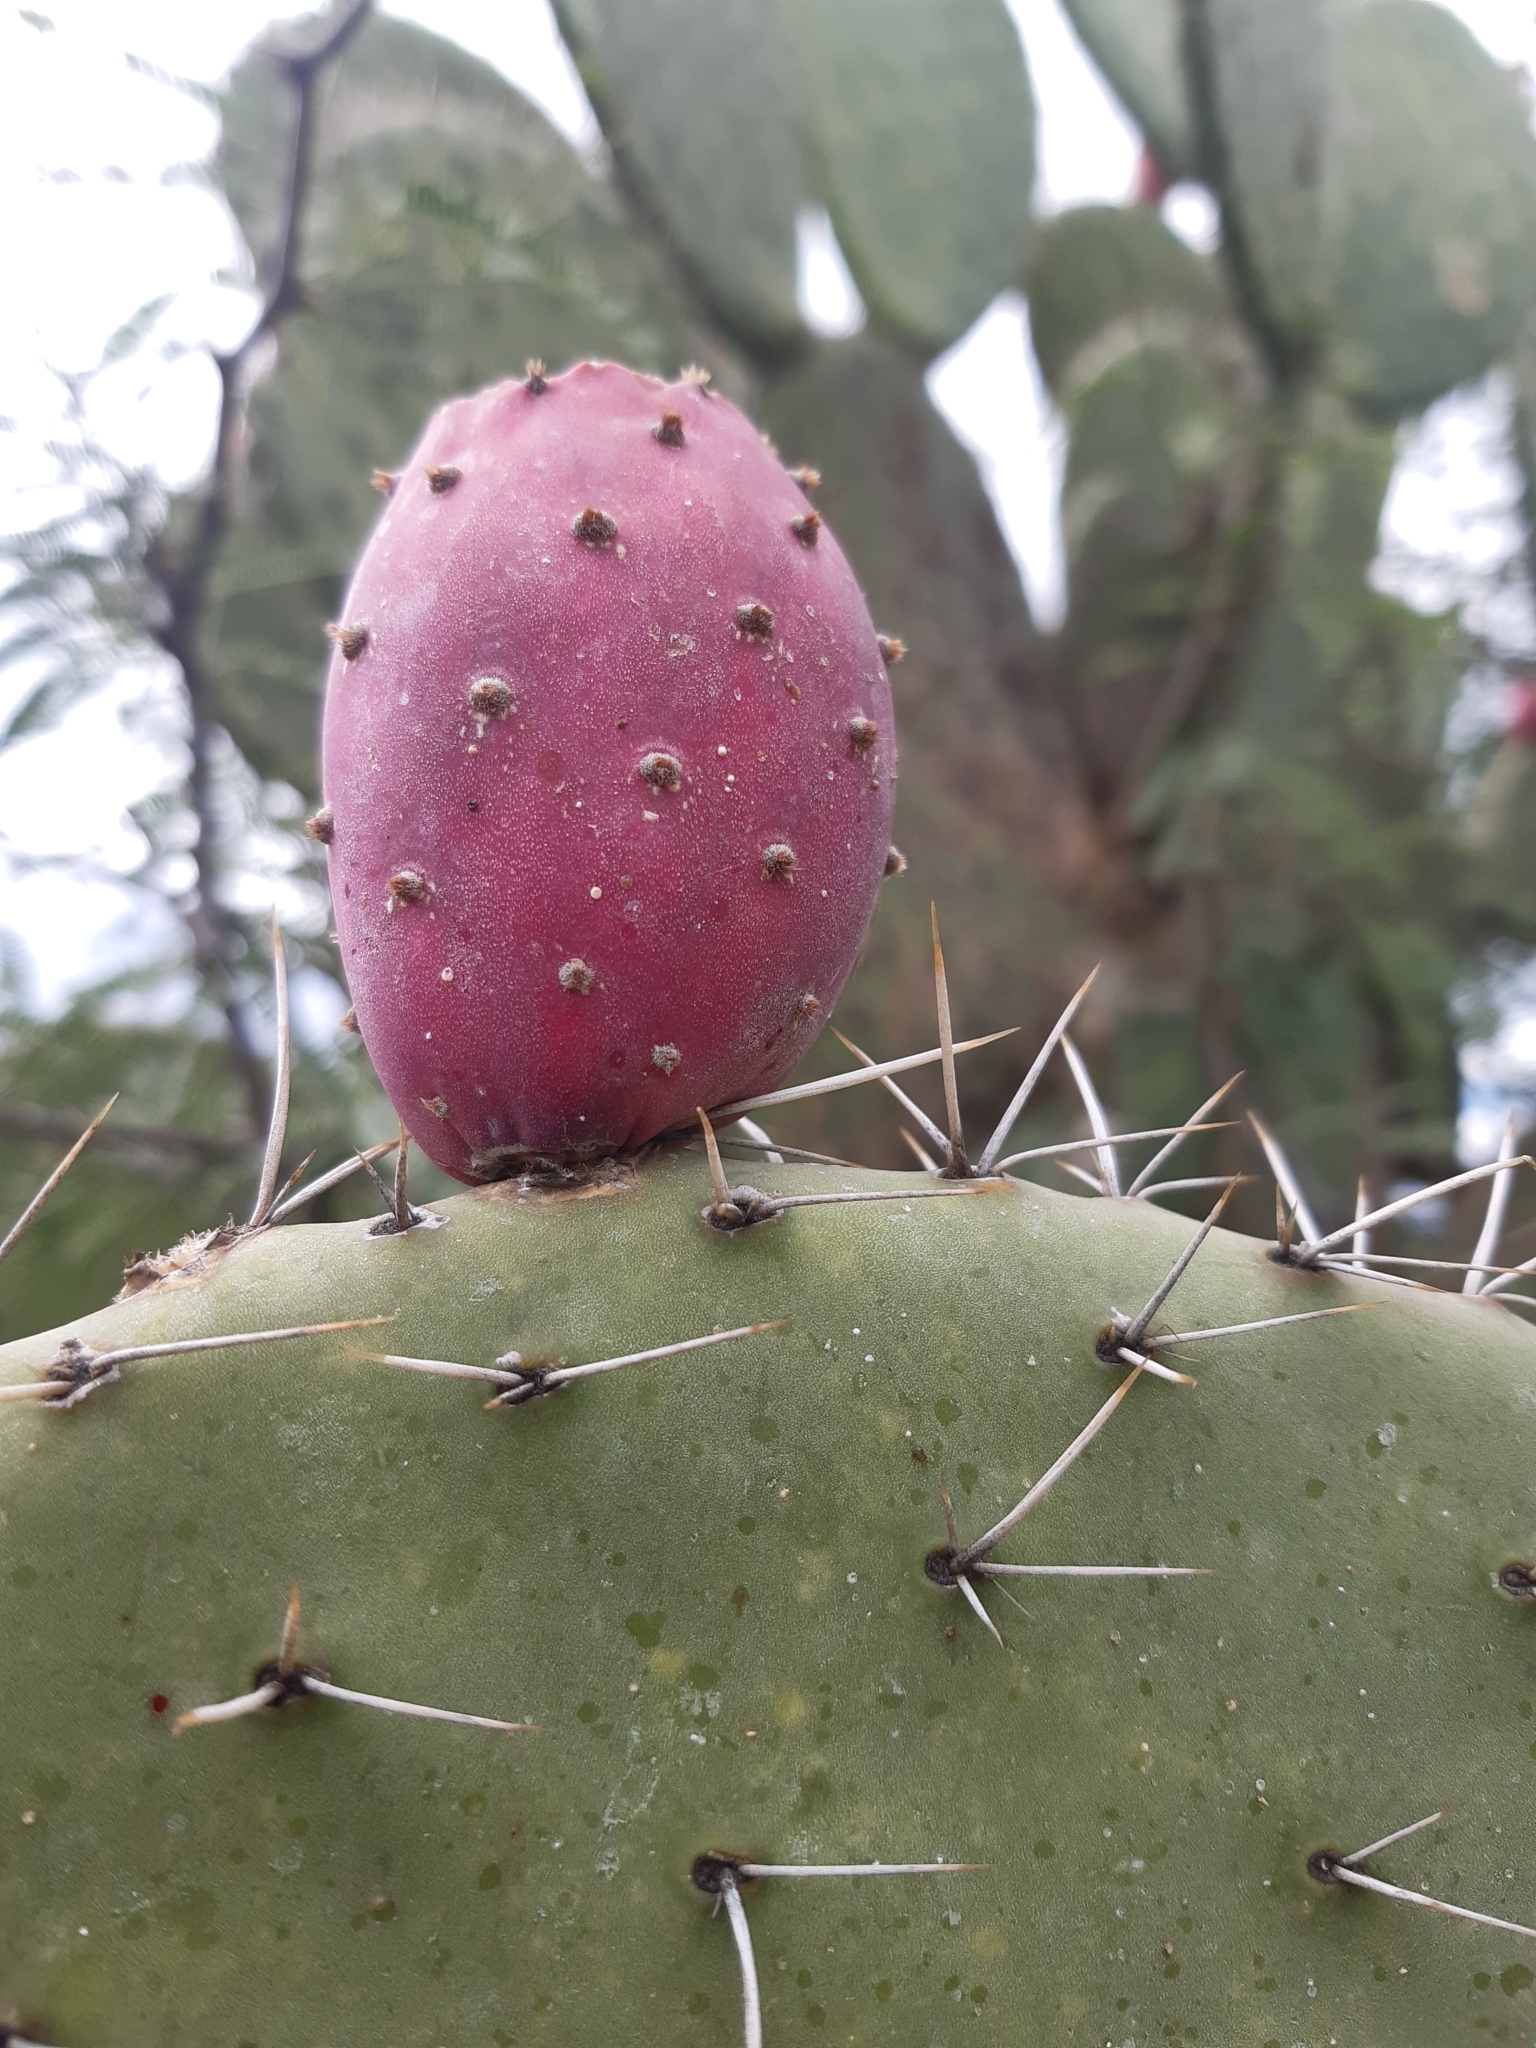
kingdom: Plantae
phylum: Tracheophyta
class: Magnoliopsida
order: Caryophyllales
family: Cactaceae
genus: Opuntia
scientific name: Opuntia hyptiacantha
